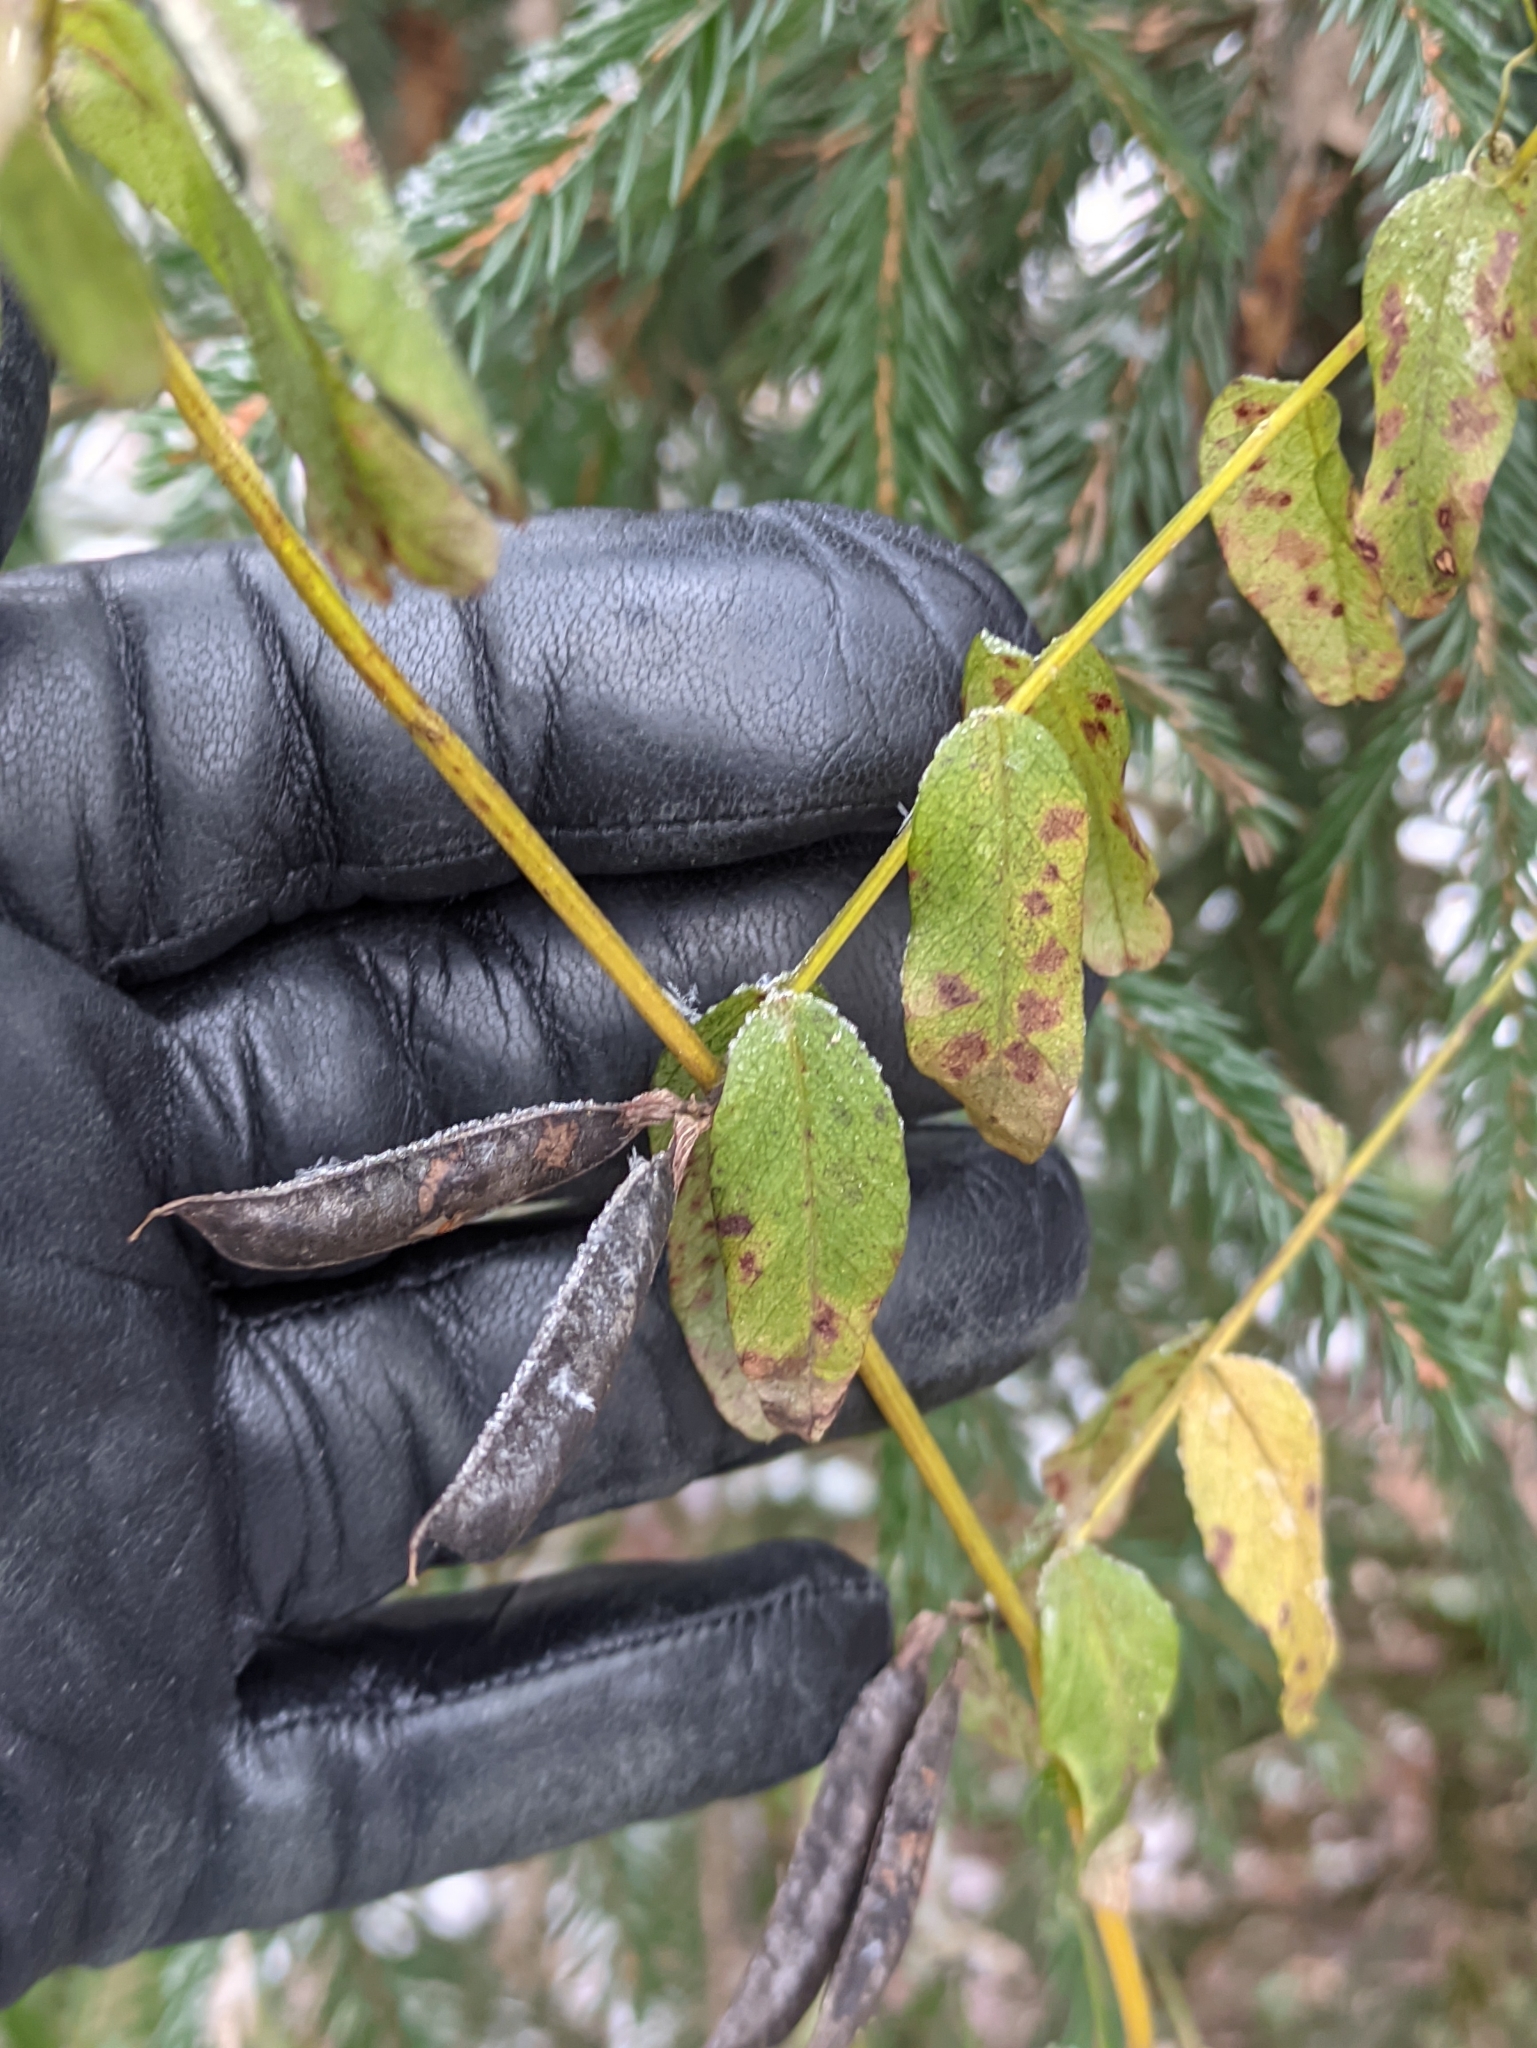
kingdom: Plantae
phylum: Tracheophyta
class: Magnoliopsida
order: Fabales
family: Fabaceae
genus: Vicia
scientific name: Vicia sepium
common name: Bush vetch
